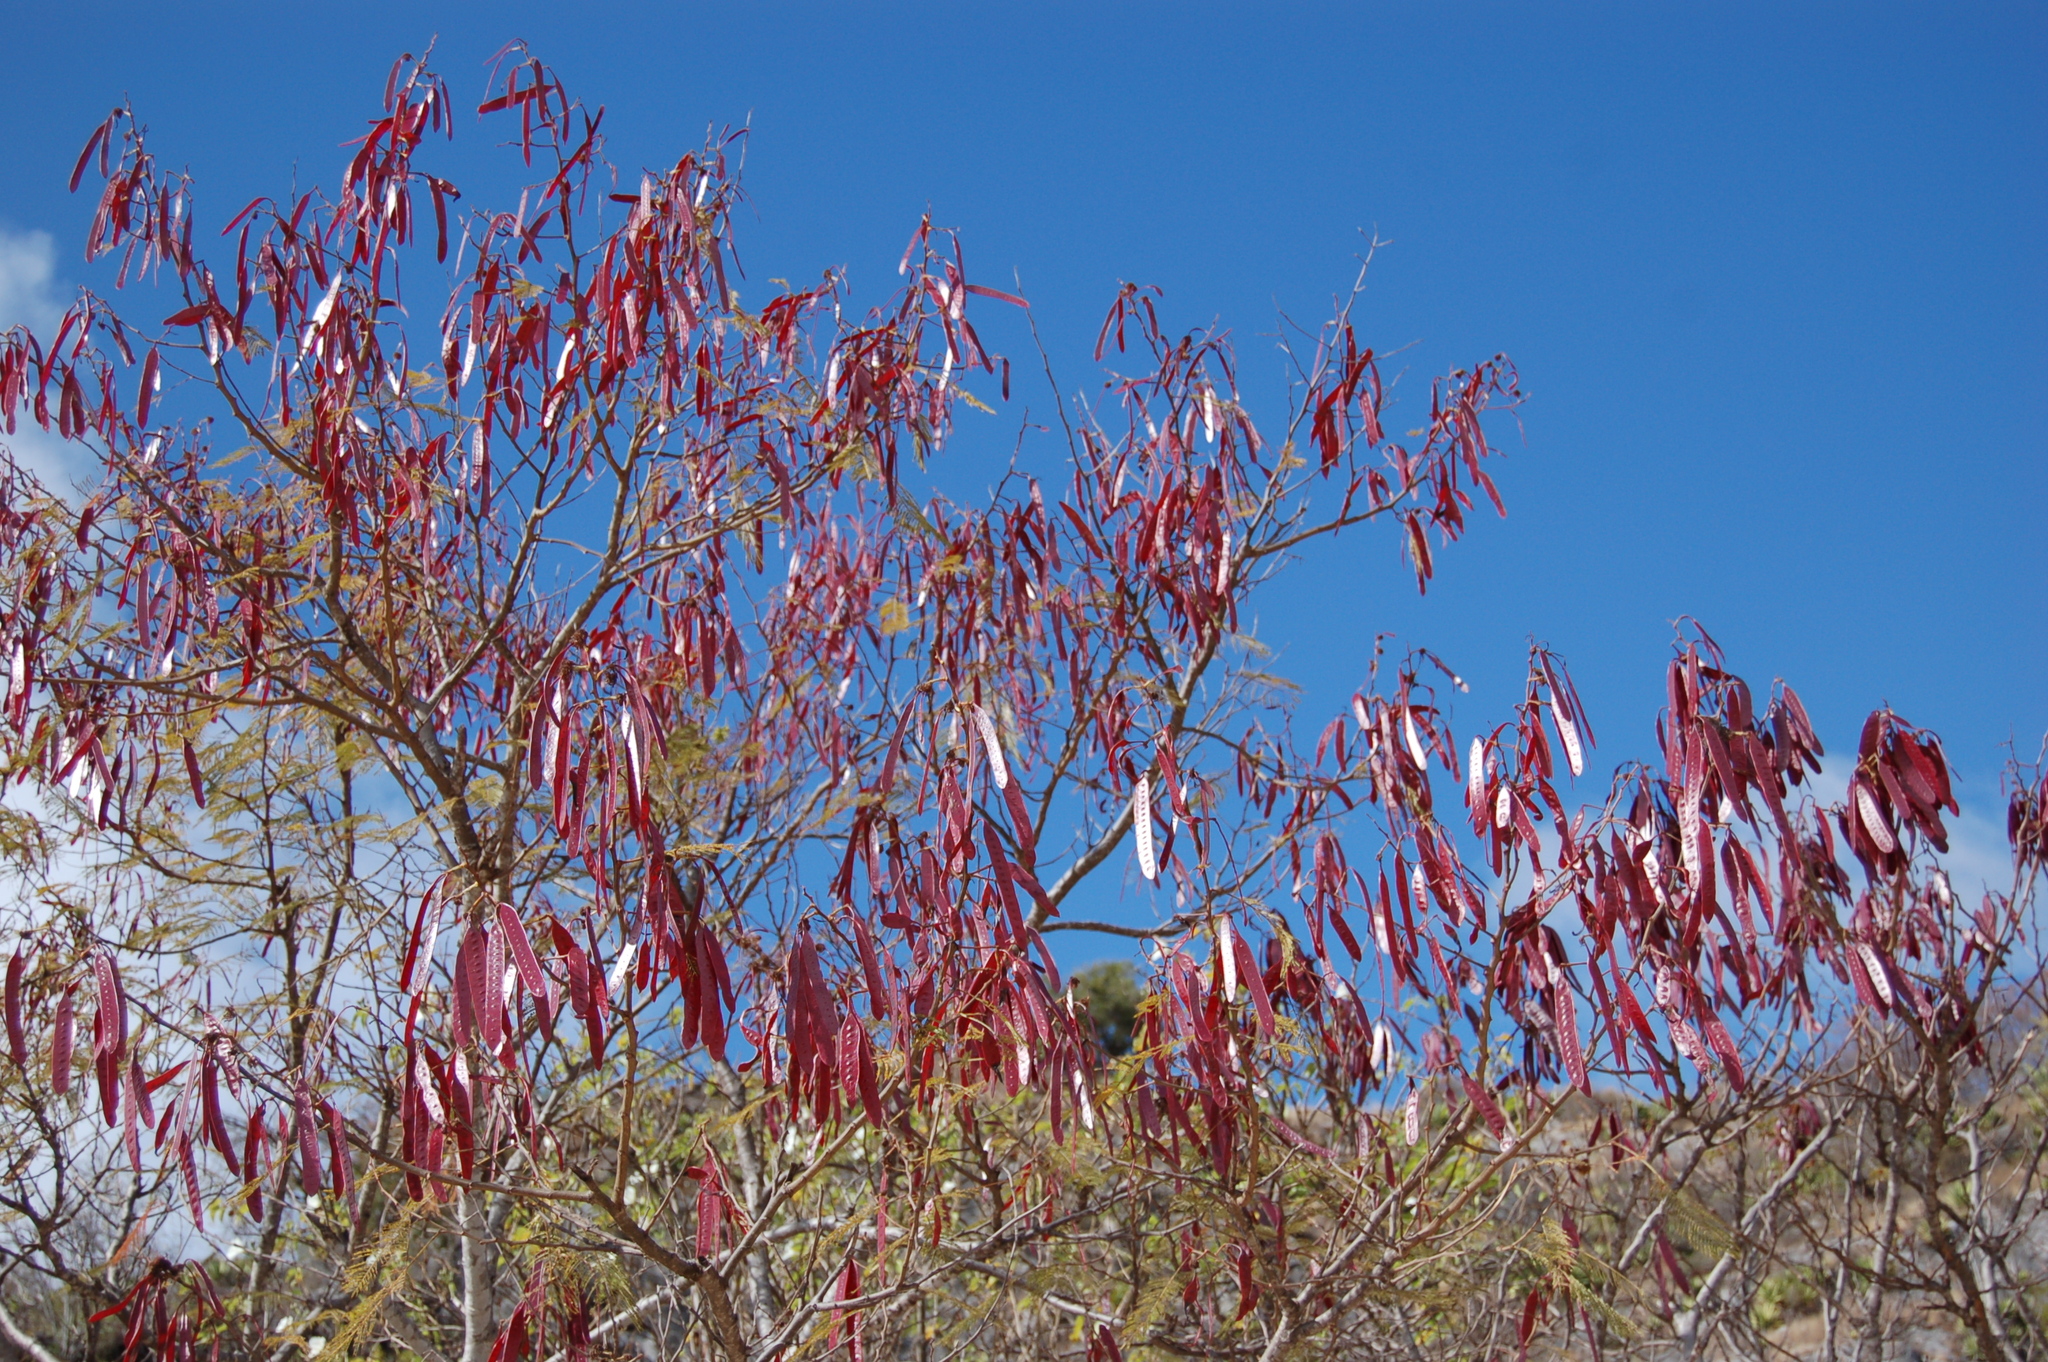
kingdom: Plantae
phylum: Tracheophyta
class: Magnoliopsida
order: Fabales
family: Fabaceae
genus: Leucaena
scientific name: Leucaena esculenta
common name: Guaje
